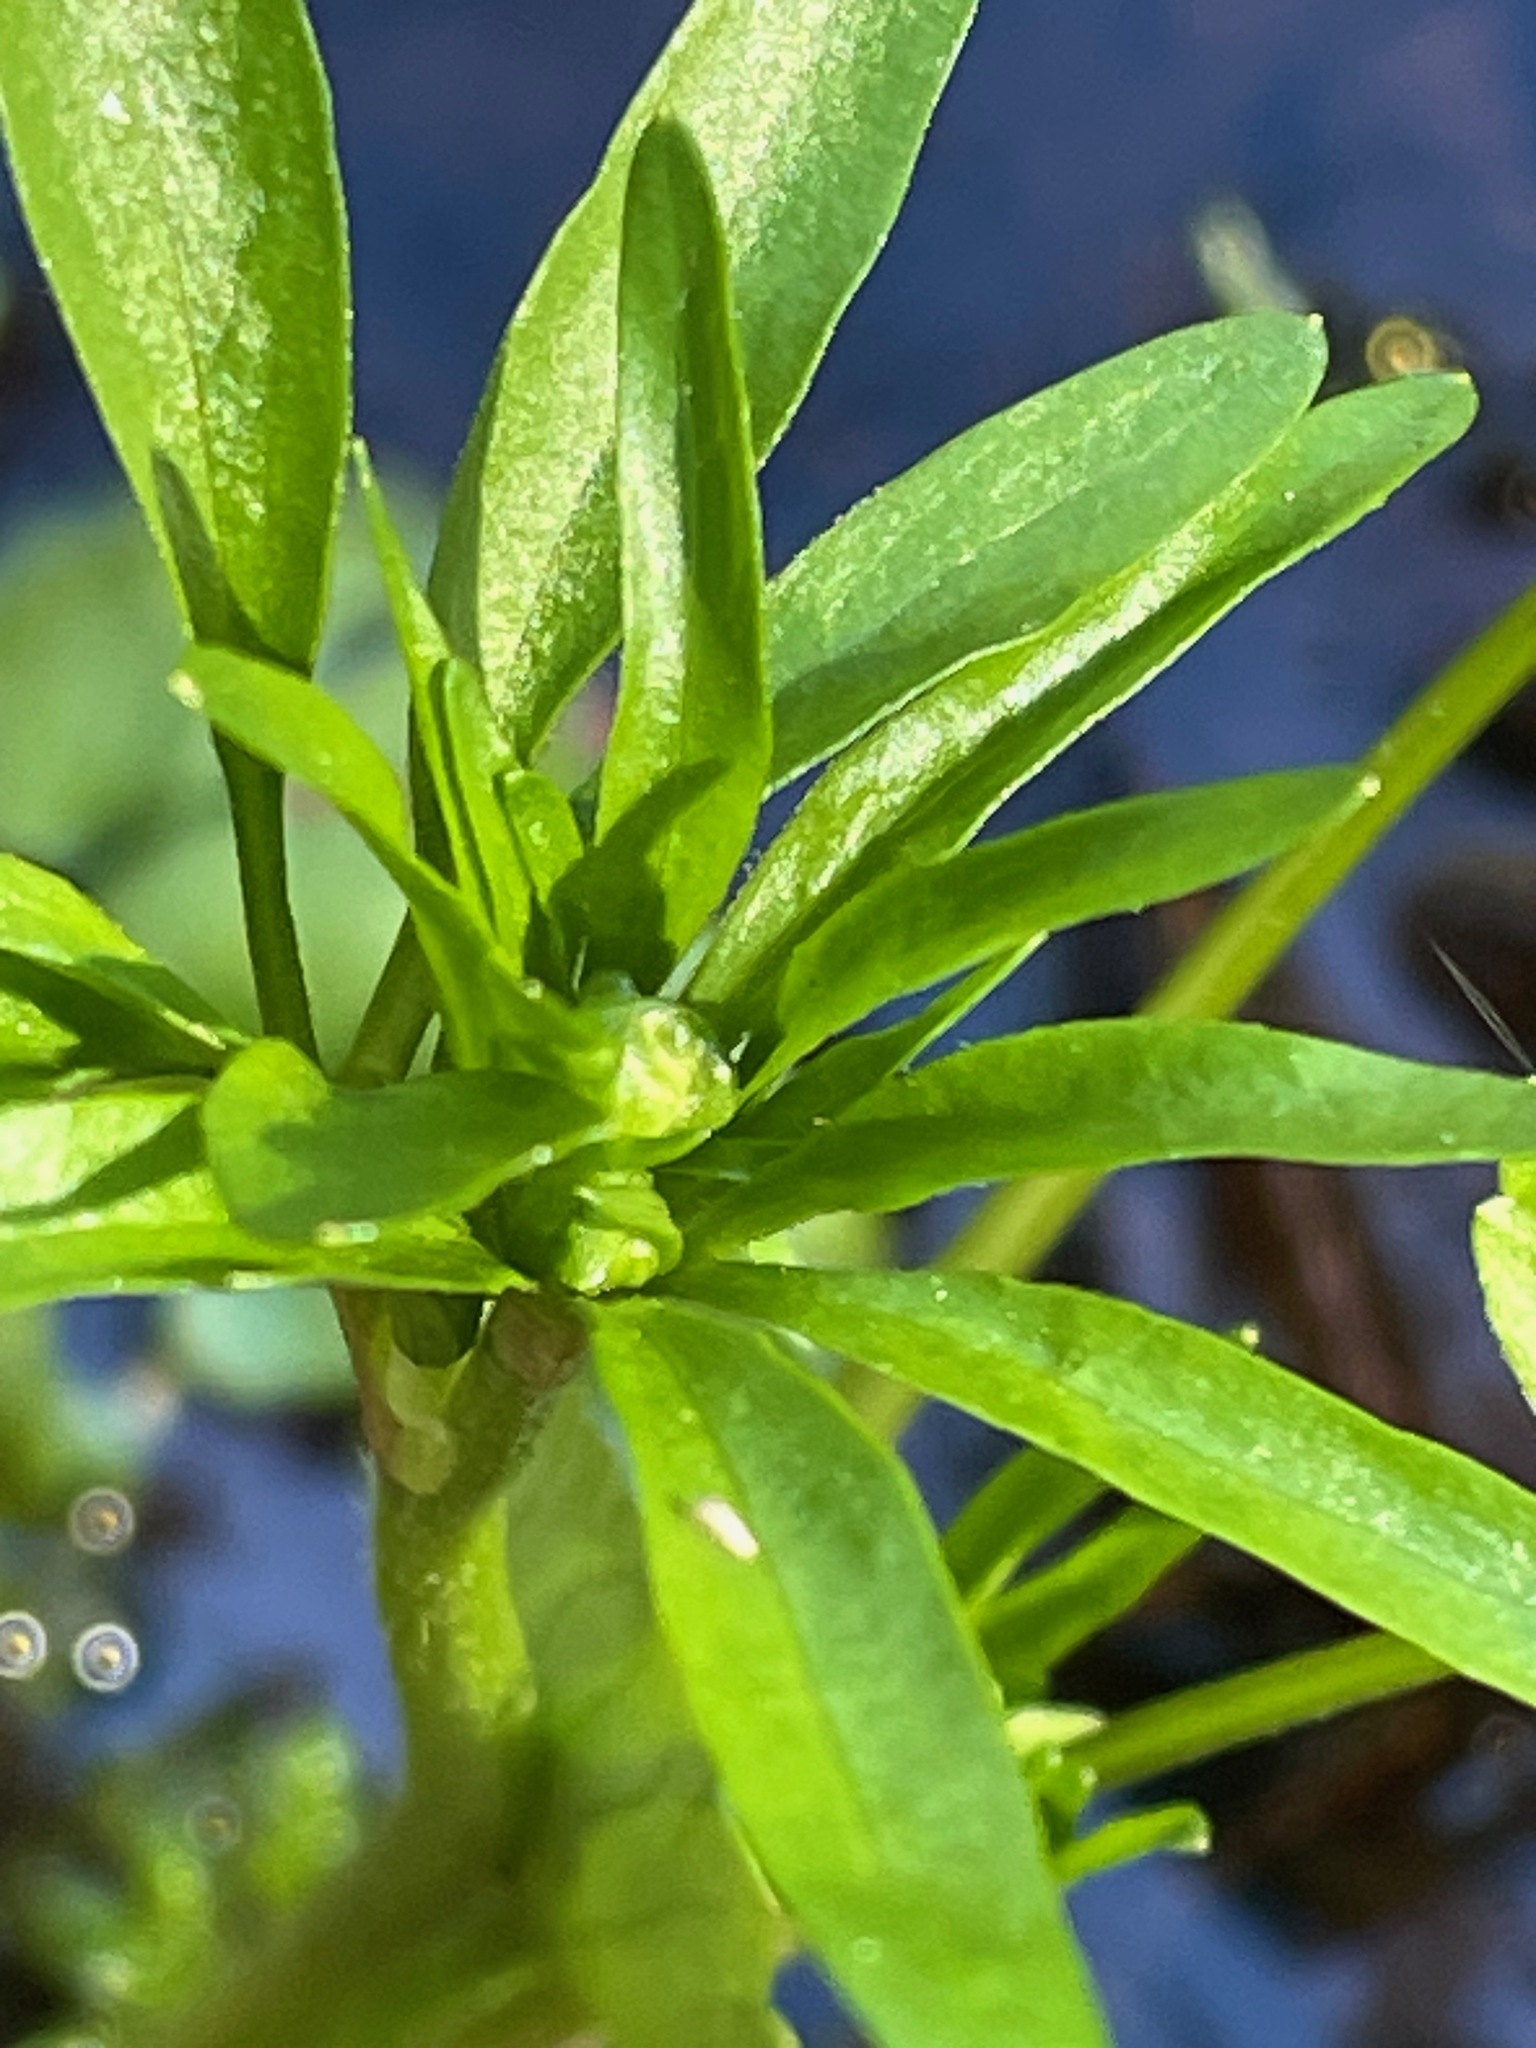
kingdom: Plantae
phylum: Tracheophyta
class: Magnoliopsida
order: Ranunculales
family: Ranunculaceae
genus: Ranunculus
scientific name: Ranunculus abortivus
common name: Early wood buttercup
